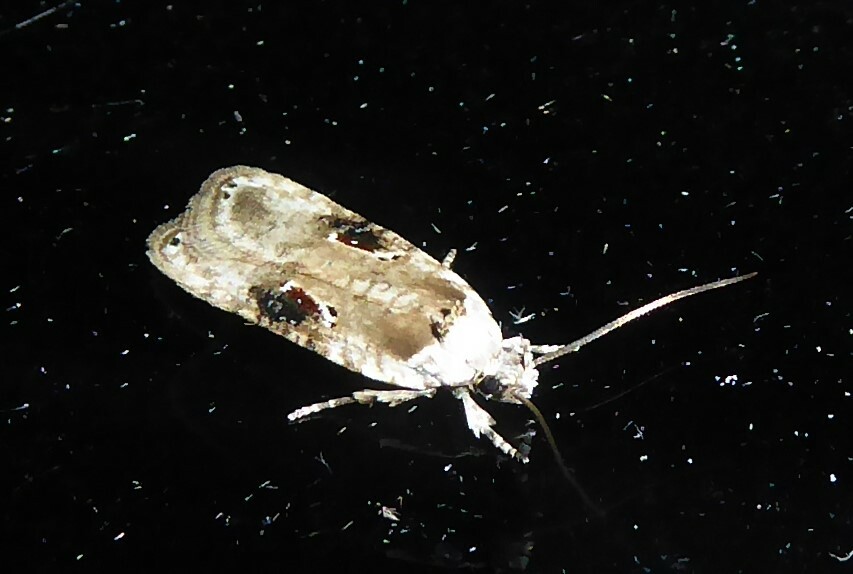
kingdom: Animalia
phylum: Arthropoda
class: Insecta
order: Lepidoptera
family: Depressariidae
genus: Agonopterix
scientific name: Agonopterix alstroemeriana
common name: Moth
